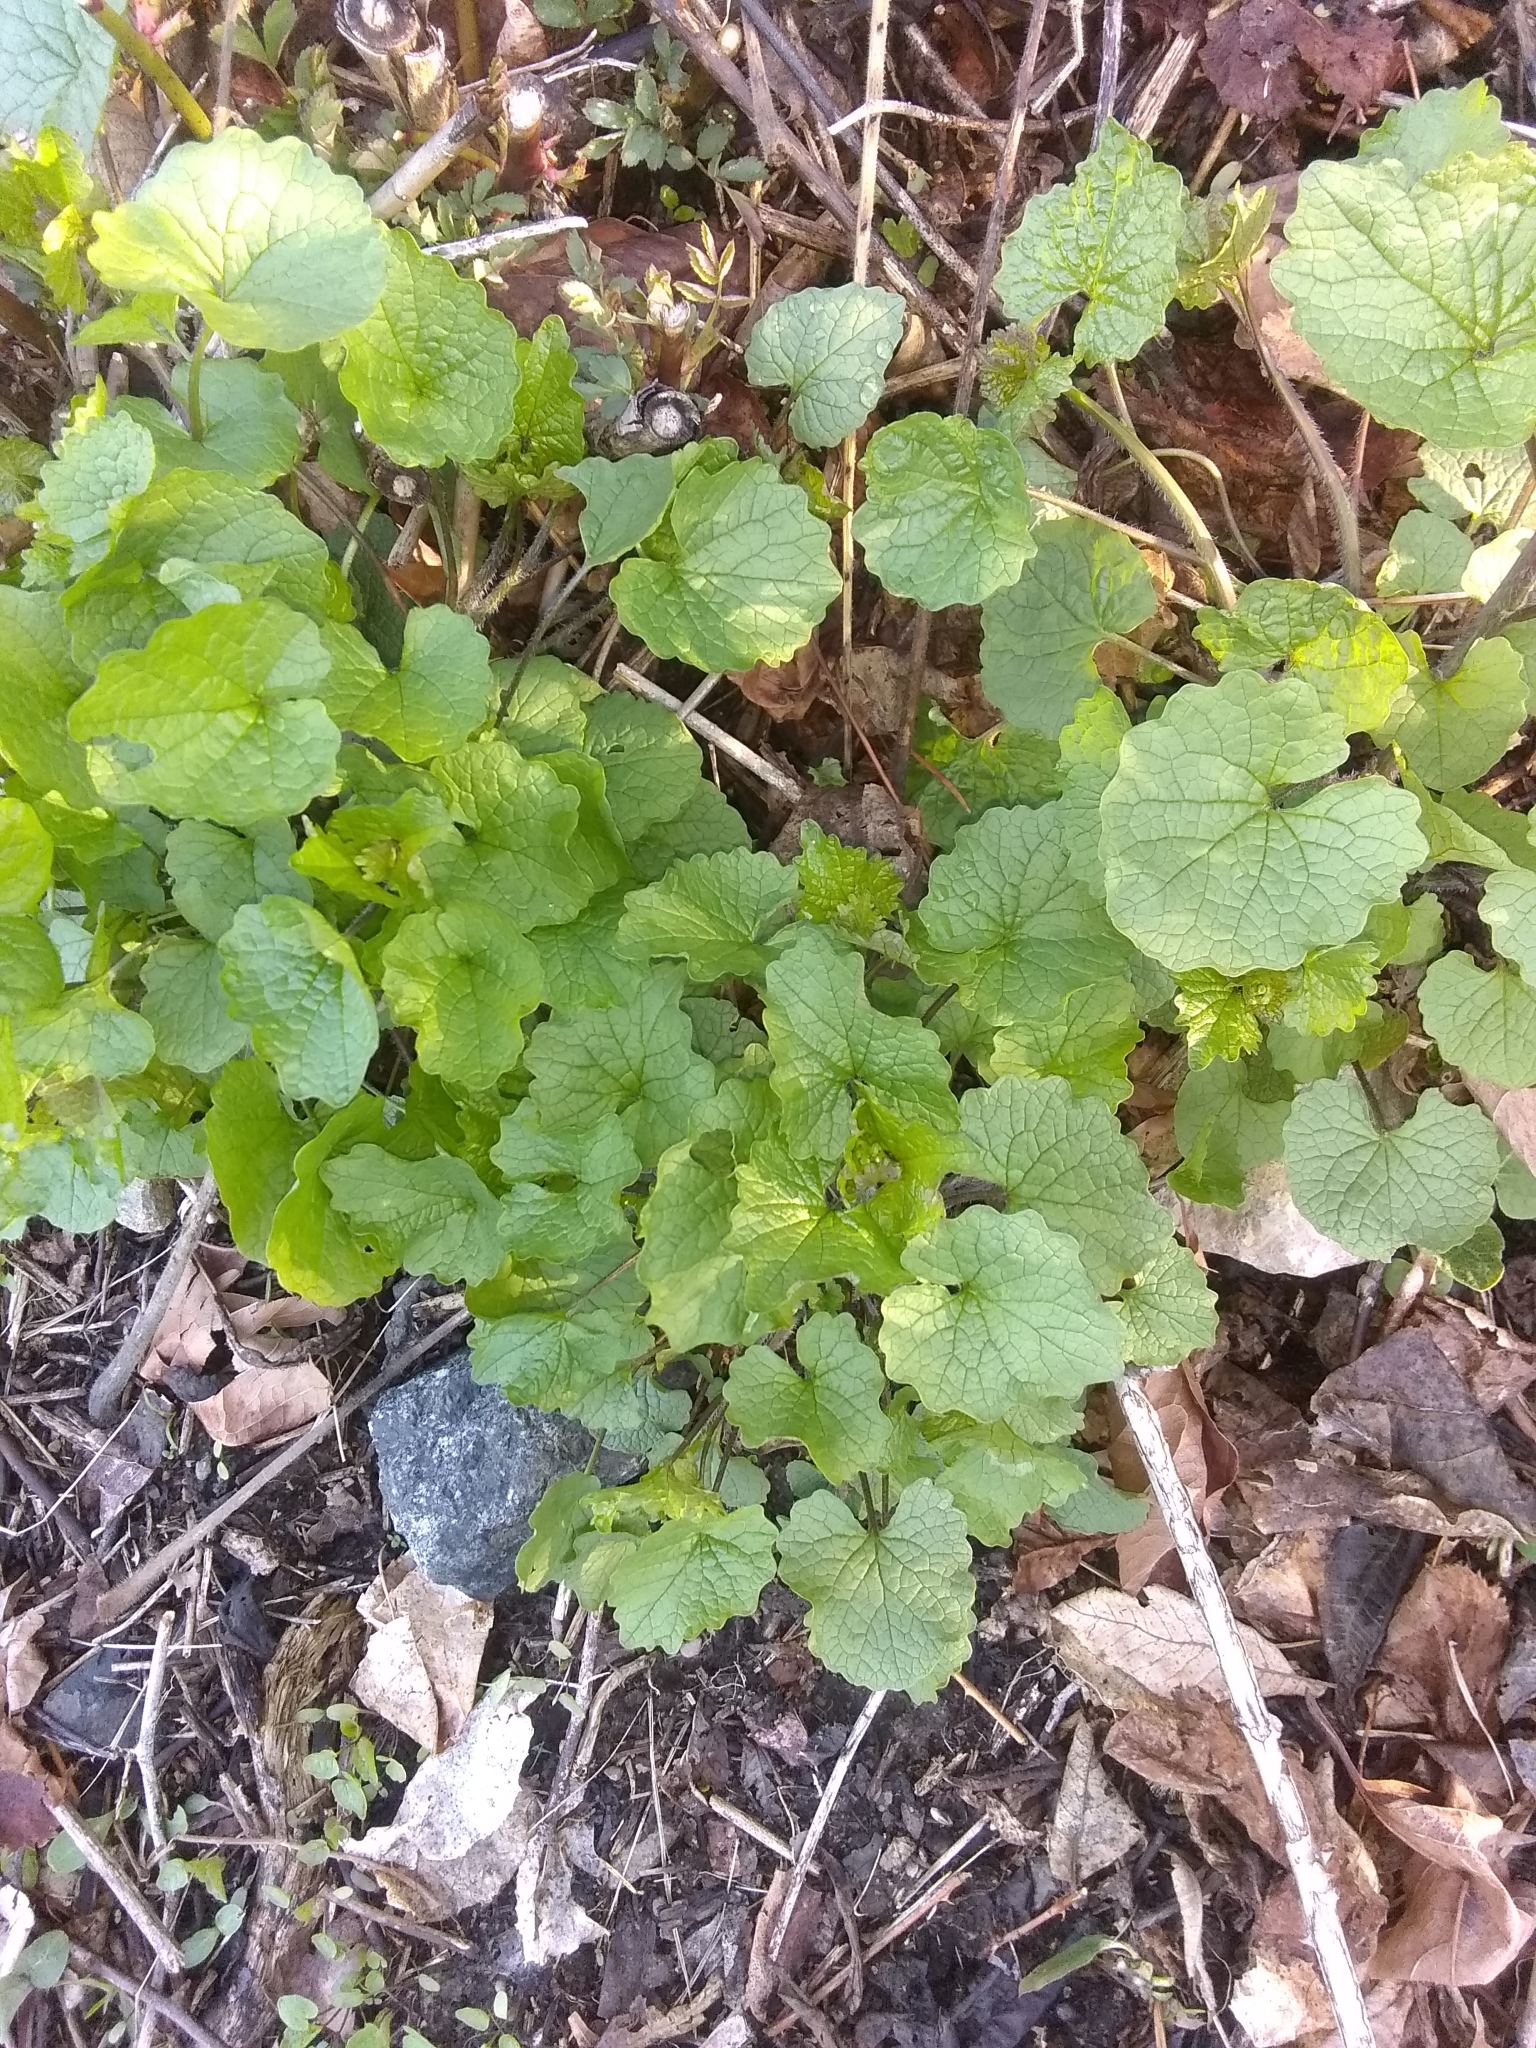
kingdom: Plantae
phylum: Tracheophyta
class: Magnoliopsida
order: Brassicales
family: Brassicaceae
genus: Alliaria
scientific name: Alliaria petiolata
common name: Garlic mustard
